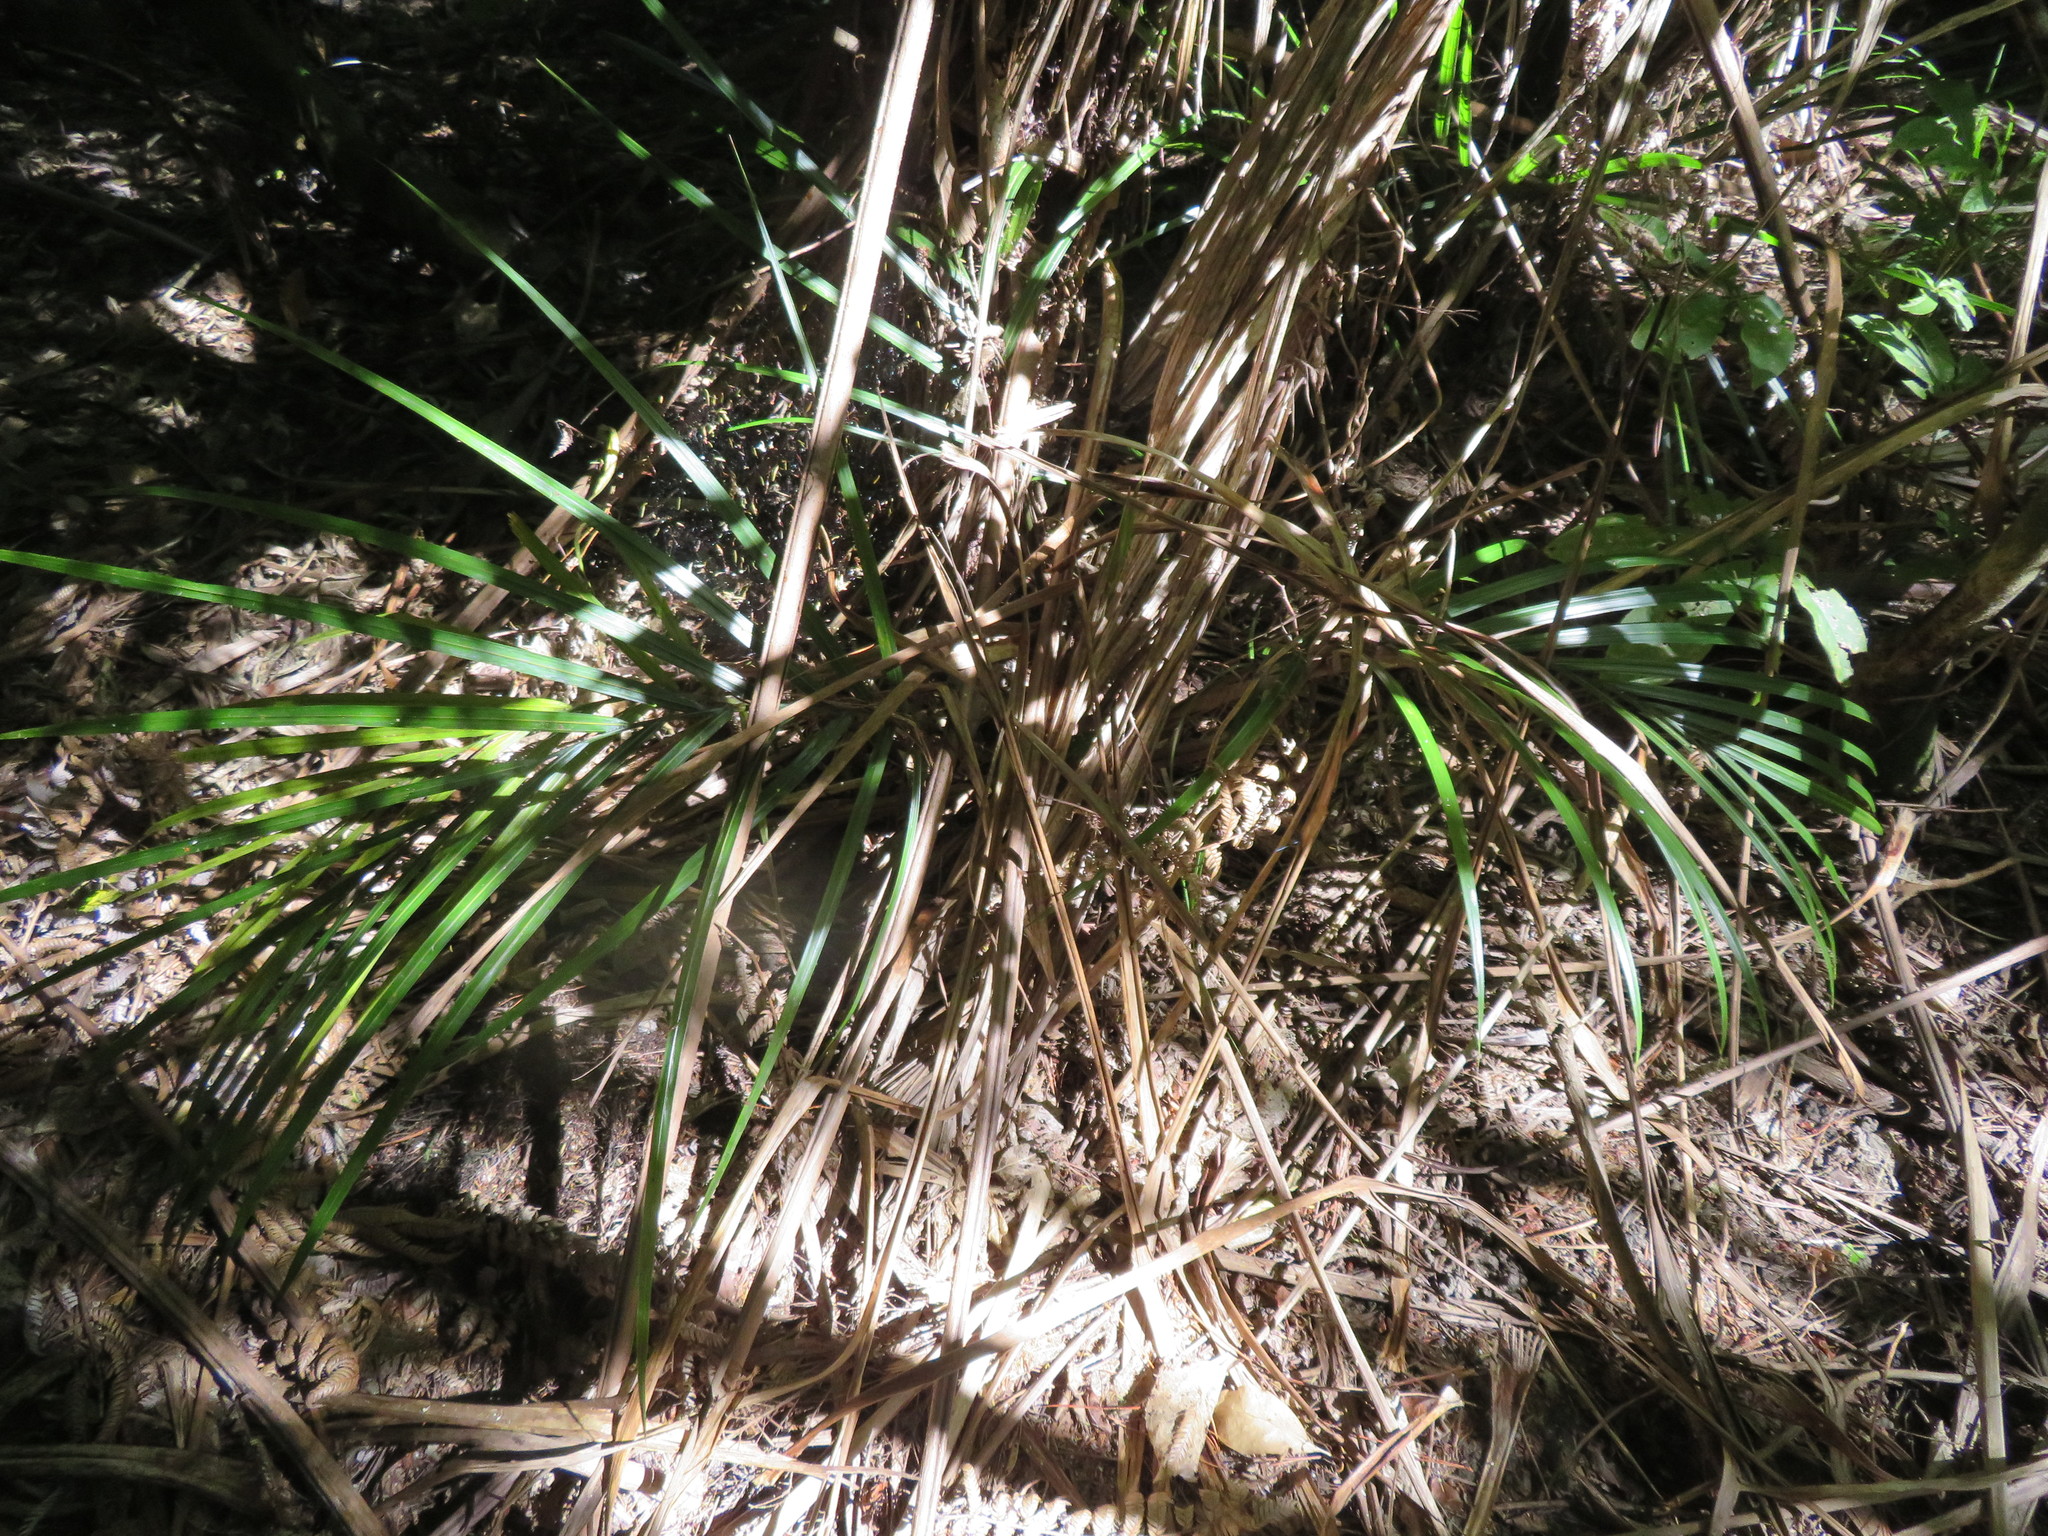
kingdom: Plantae
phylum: Tracheophyta
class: Liliopsida
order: Arecales
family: Arecaceae
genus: Rhopalostylis
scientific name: Rhopalostylis sapida
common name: Feather-duster palm
